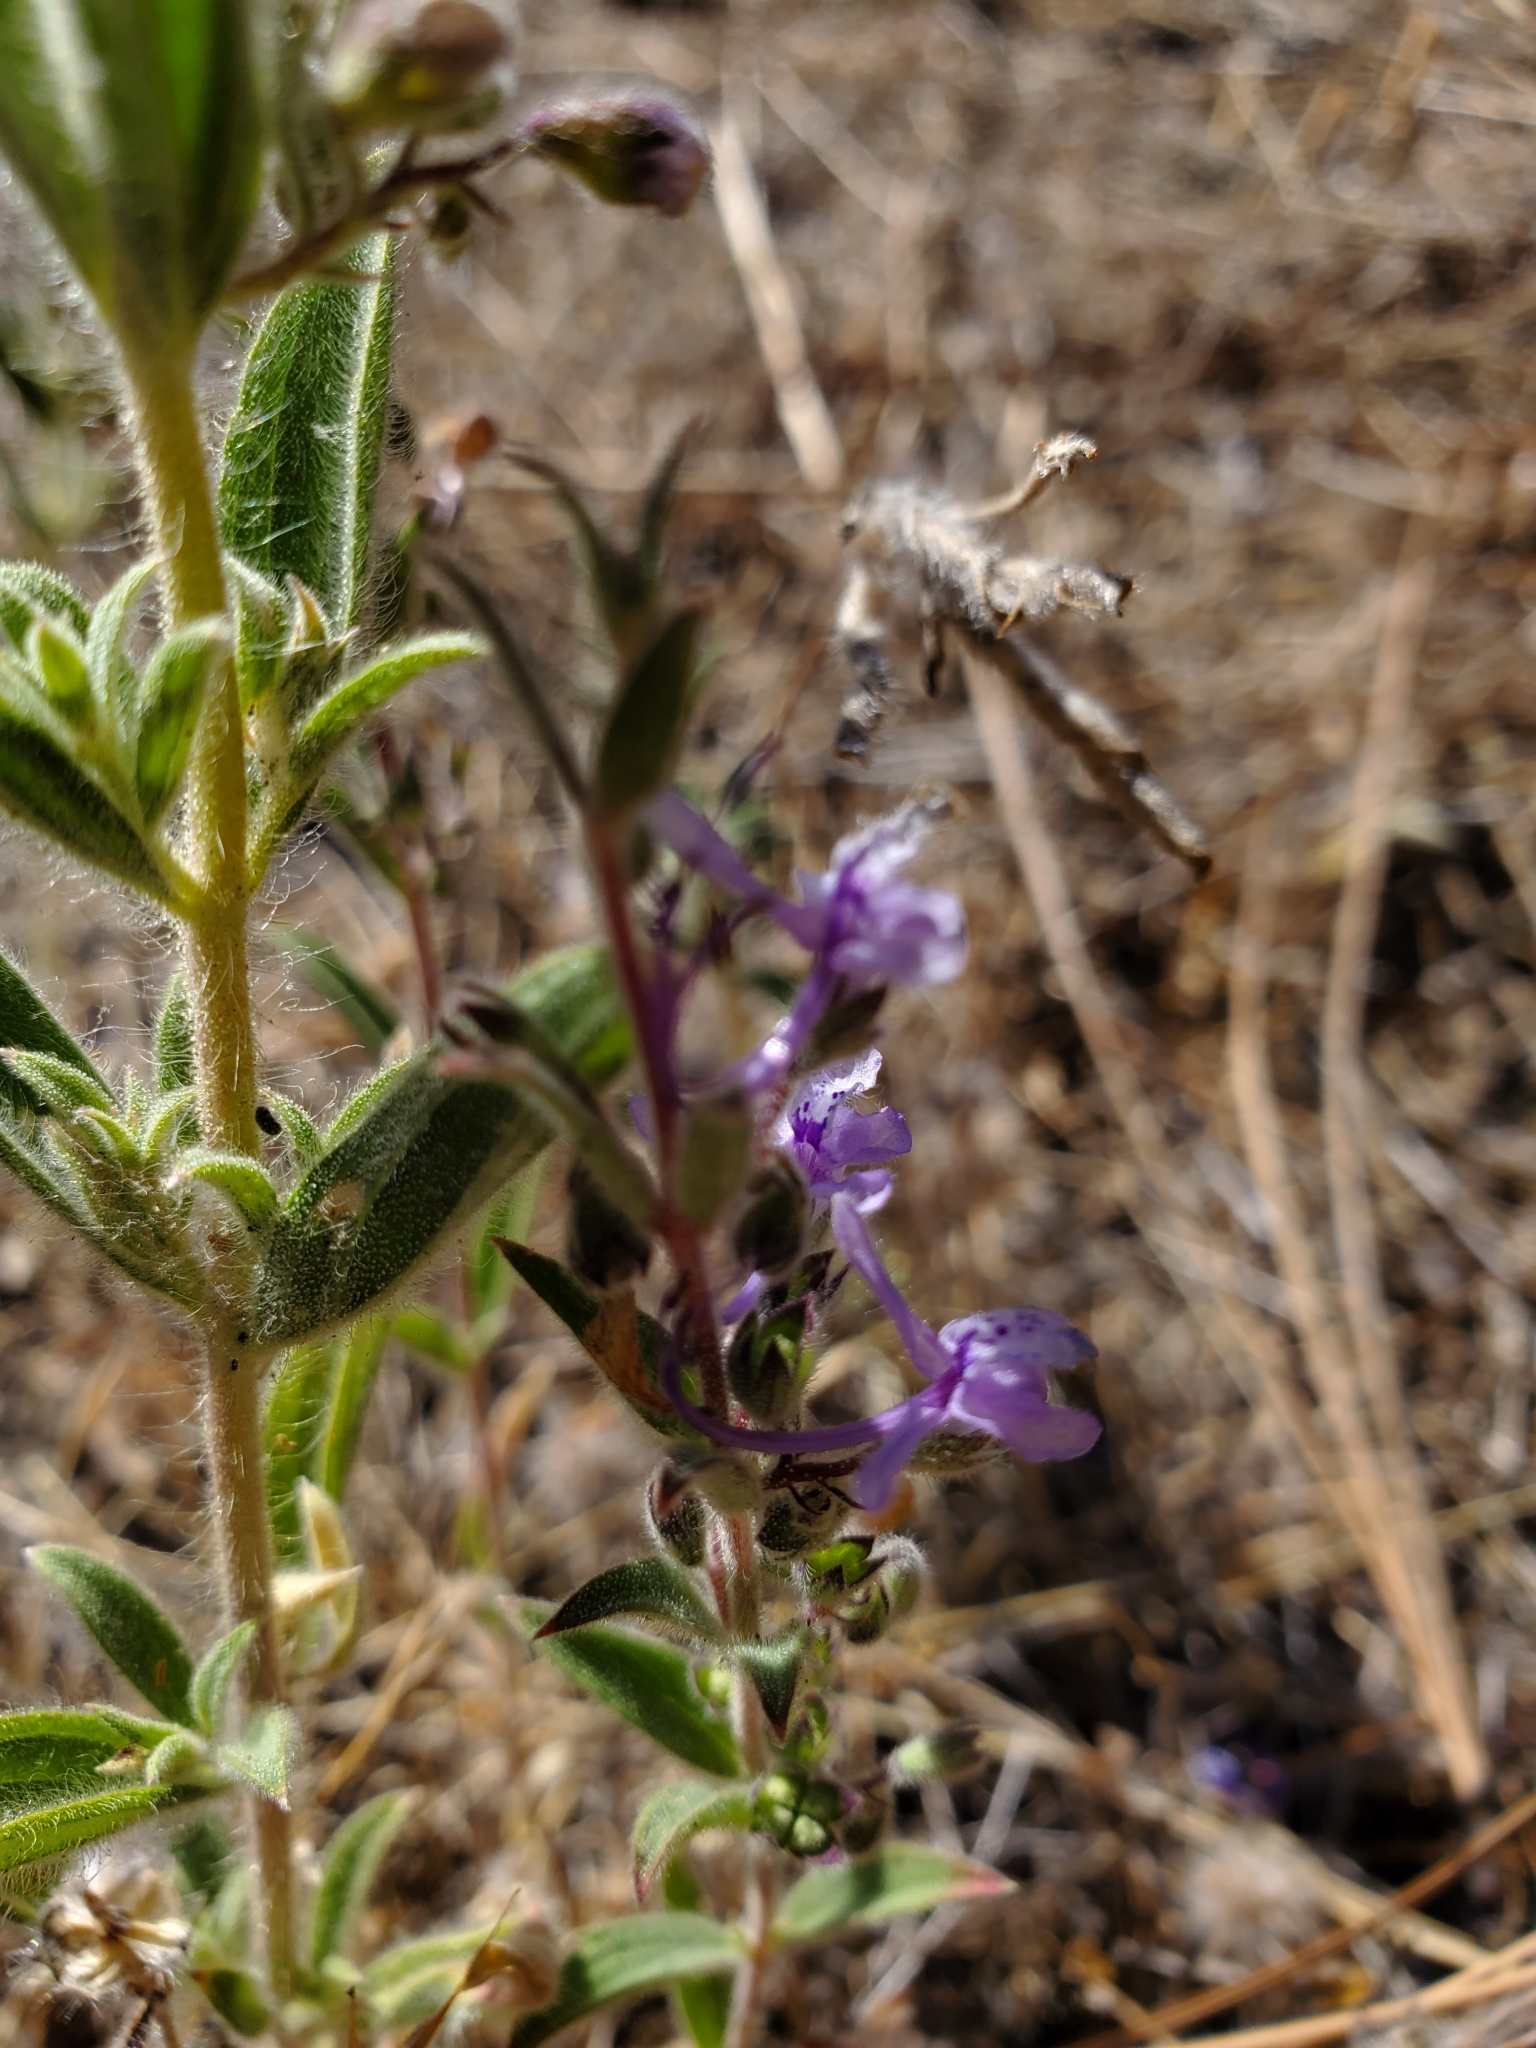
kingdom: Plantae
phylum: Tracheophyta
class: Magnoliopsida
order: Lamiales
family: Lamiaceae
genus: Trichostema
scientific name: Trichostema lanceolatum
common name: Vinegar-weed
